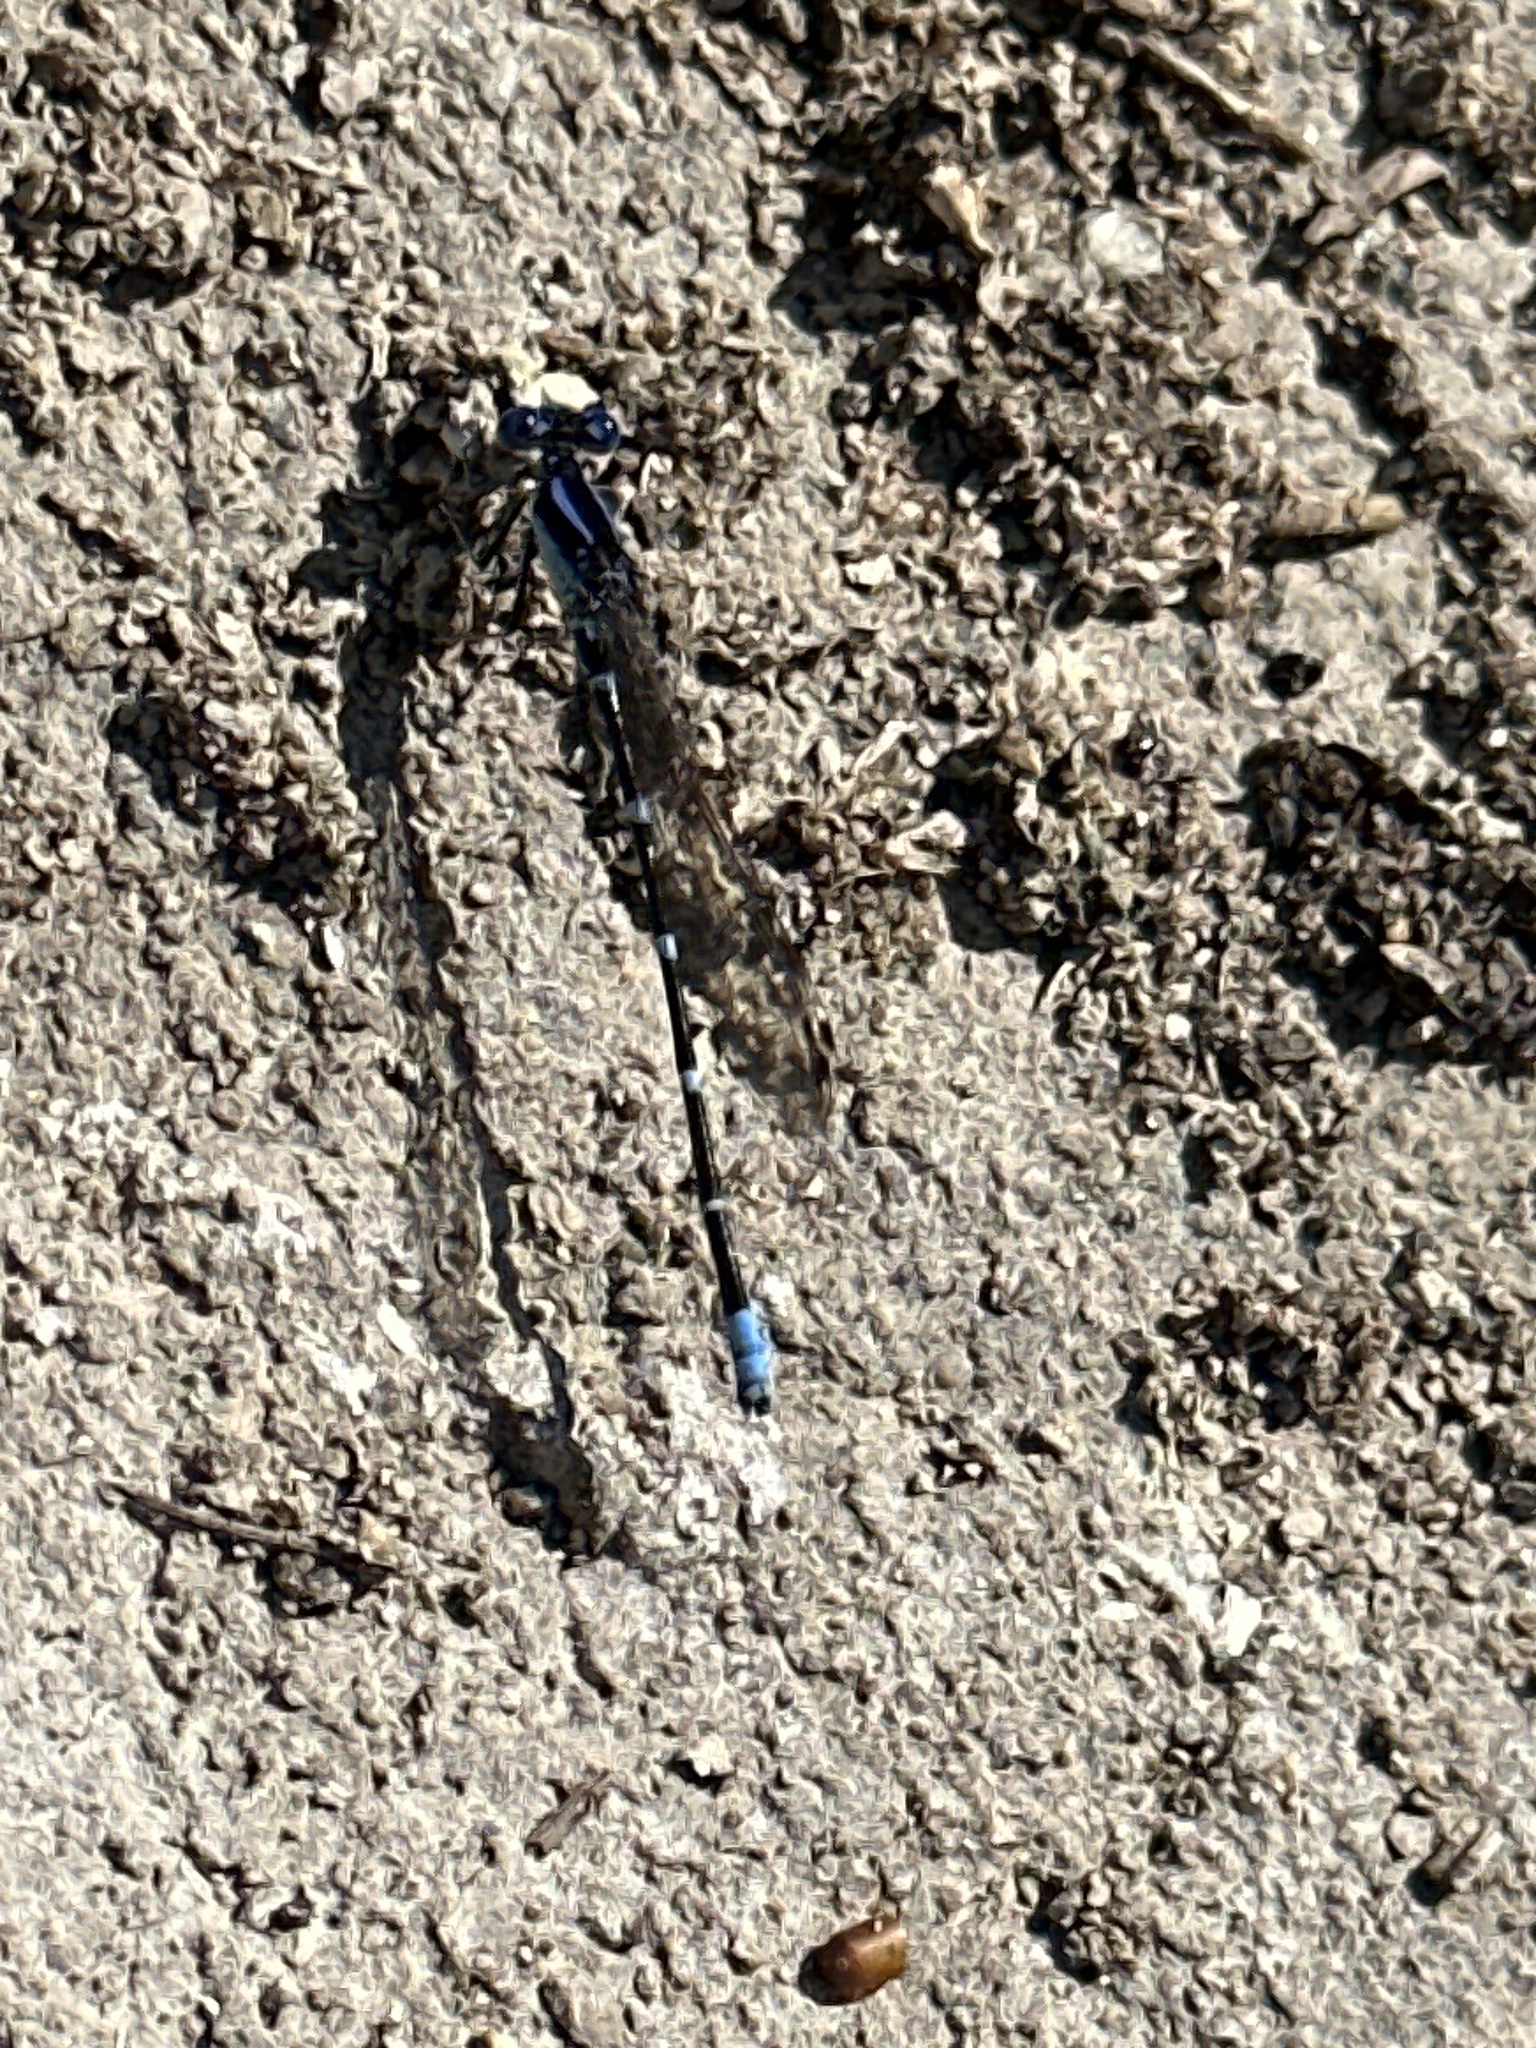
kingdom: Animalia
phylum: Arthropoda
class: Insecta
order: Odonata
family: Coenagrionidae
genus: Argia
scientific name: Argia sedula
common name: Blue-ringed dancer
